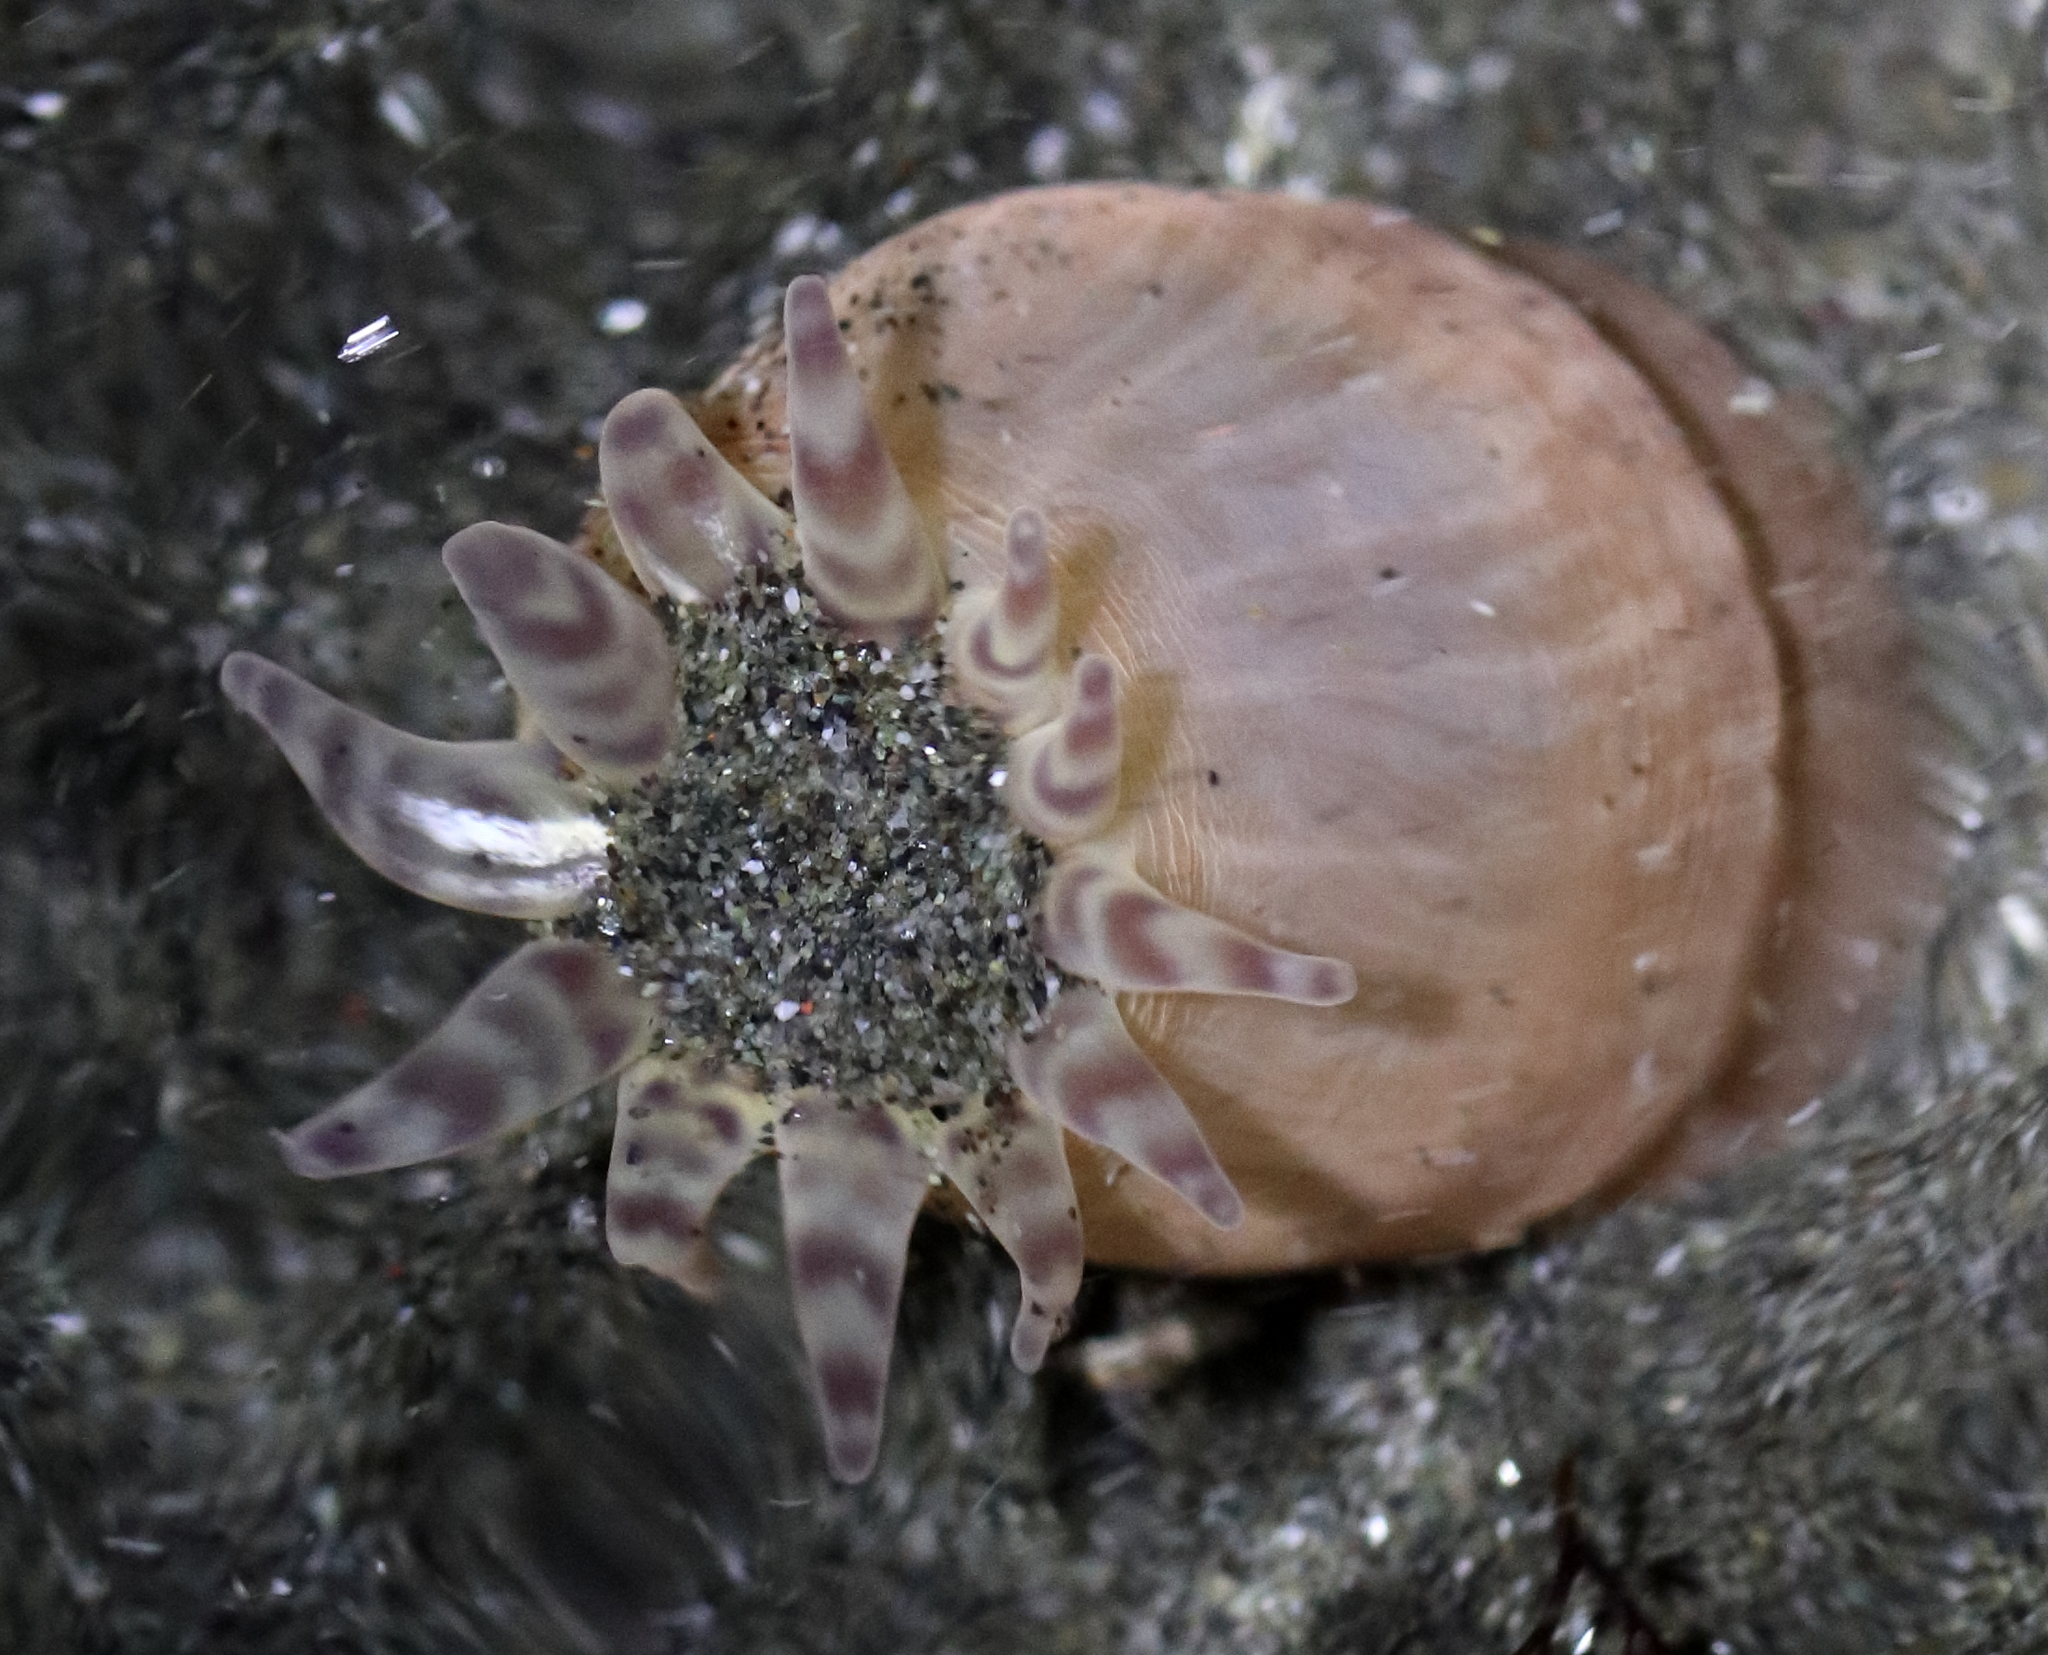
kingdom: Animalia
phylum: Cnidaria
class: Anthozoa
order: Actiniaria
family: Peachiidae
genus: Peachia
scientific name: Peachia quinquecapitata
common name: Twelve-tentacled parasitic anemone
